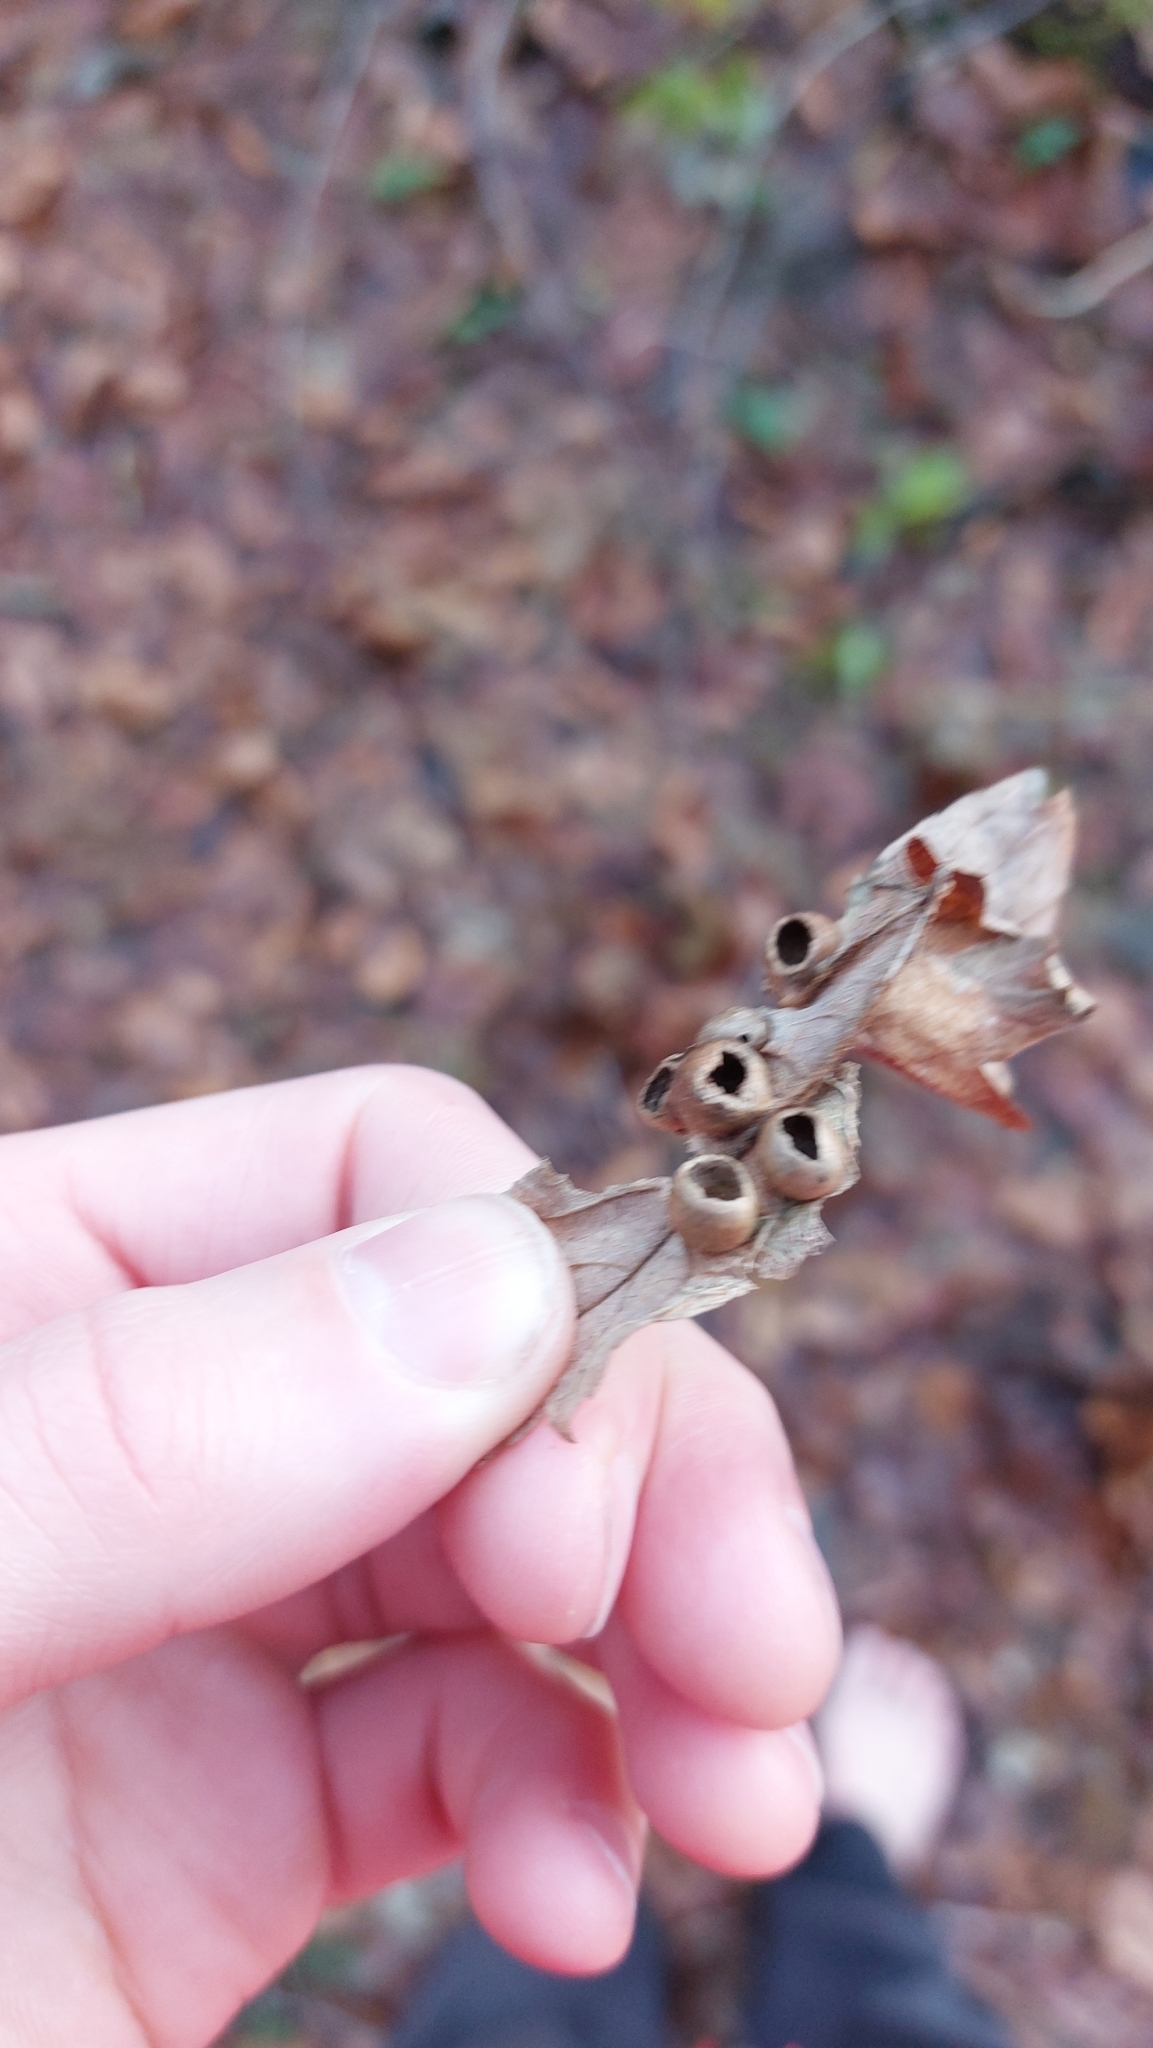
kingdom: Animalia
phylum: Arthropoda
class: Insecta
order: Hymenoptera
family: Cynipidae
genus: Pediaspis
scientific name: Pediaspis aceris
